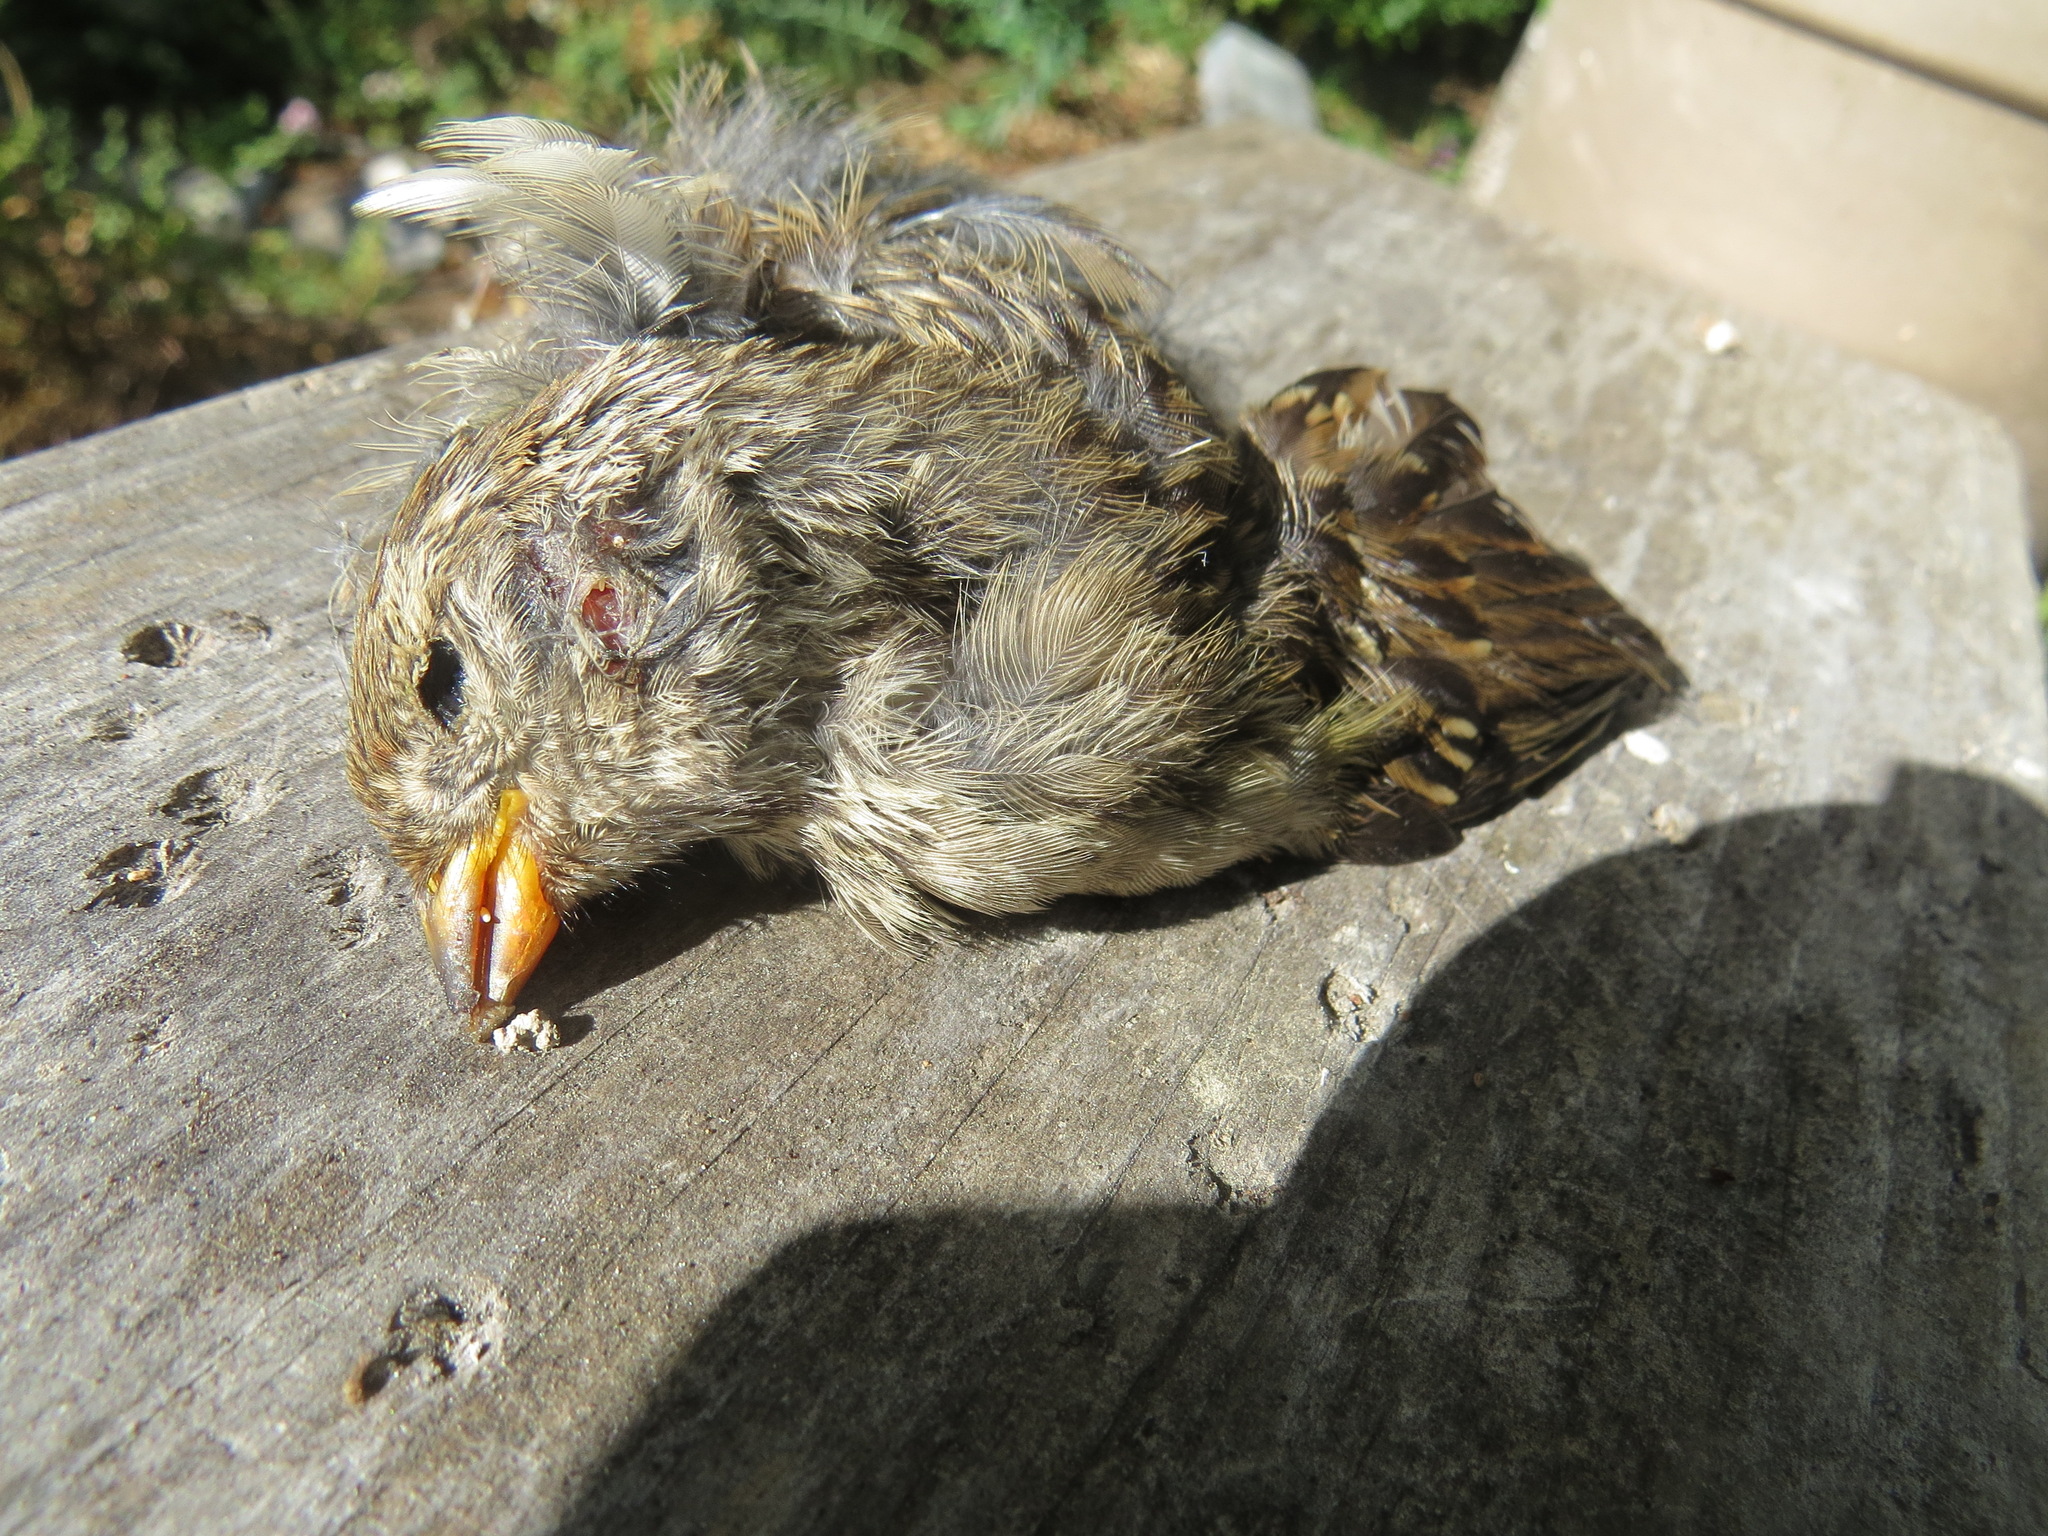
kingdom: Animalia
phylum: Chordata
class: Aves
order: Passeriformes
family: Passerellidae
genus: Zonotrichia
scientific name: Zonotrichia leucophrys
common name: White-crowned sparrow
